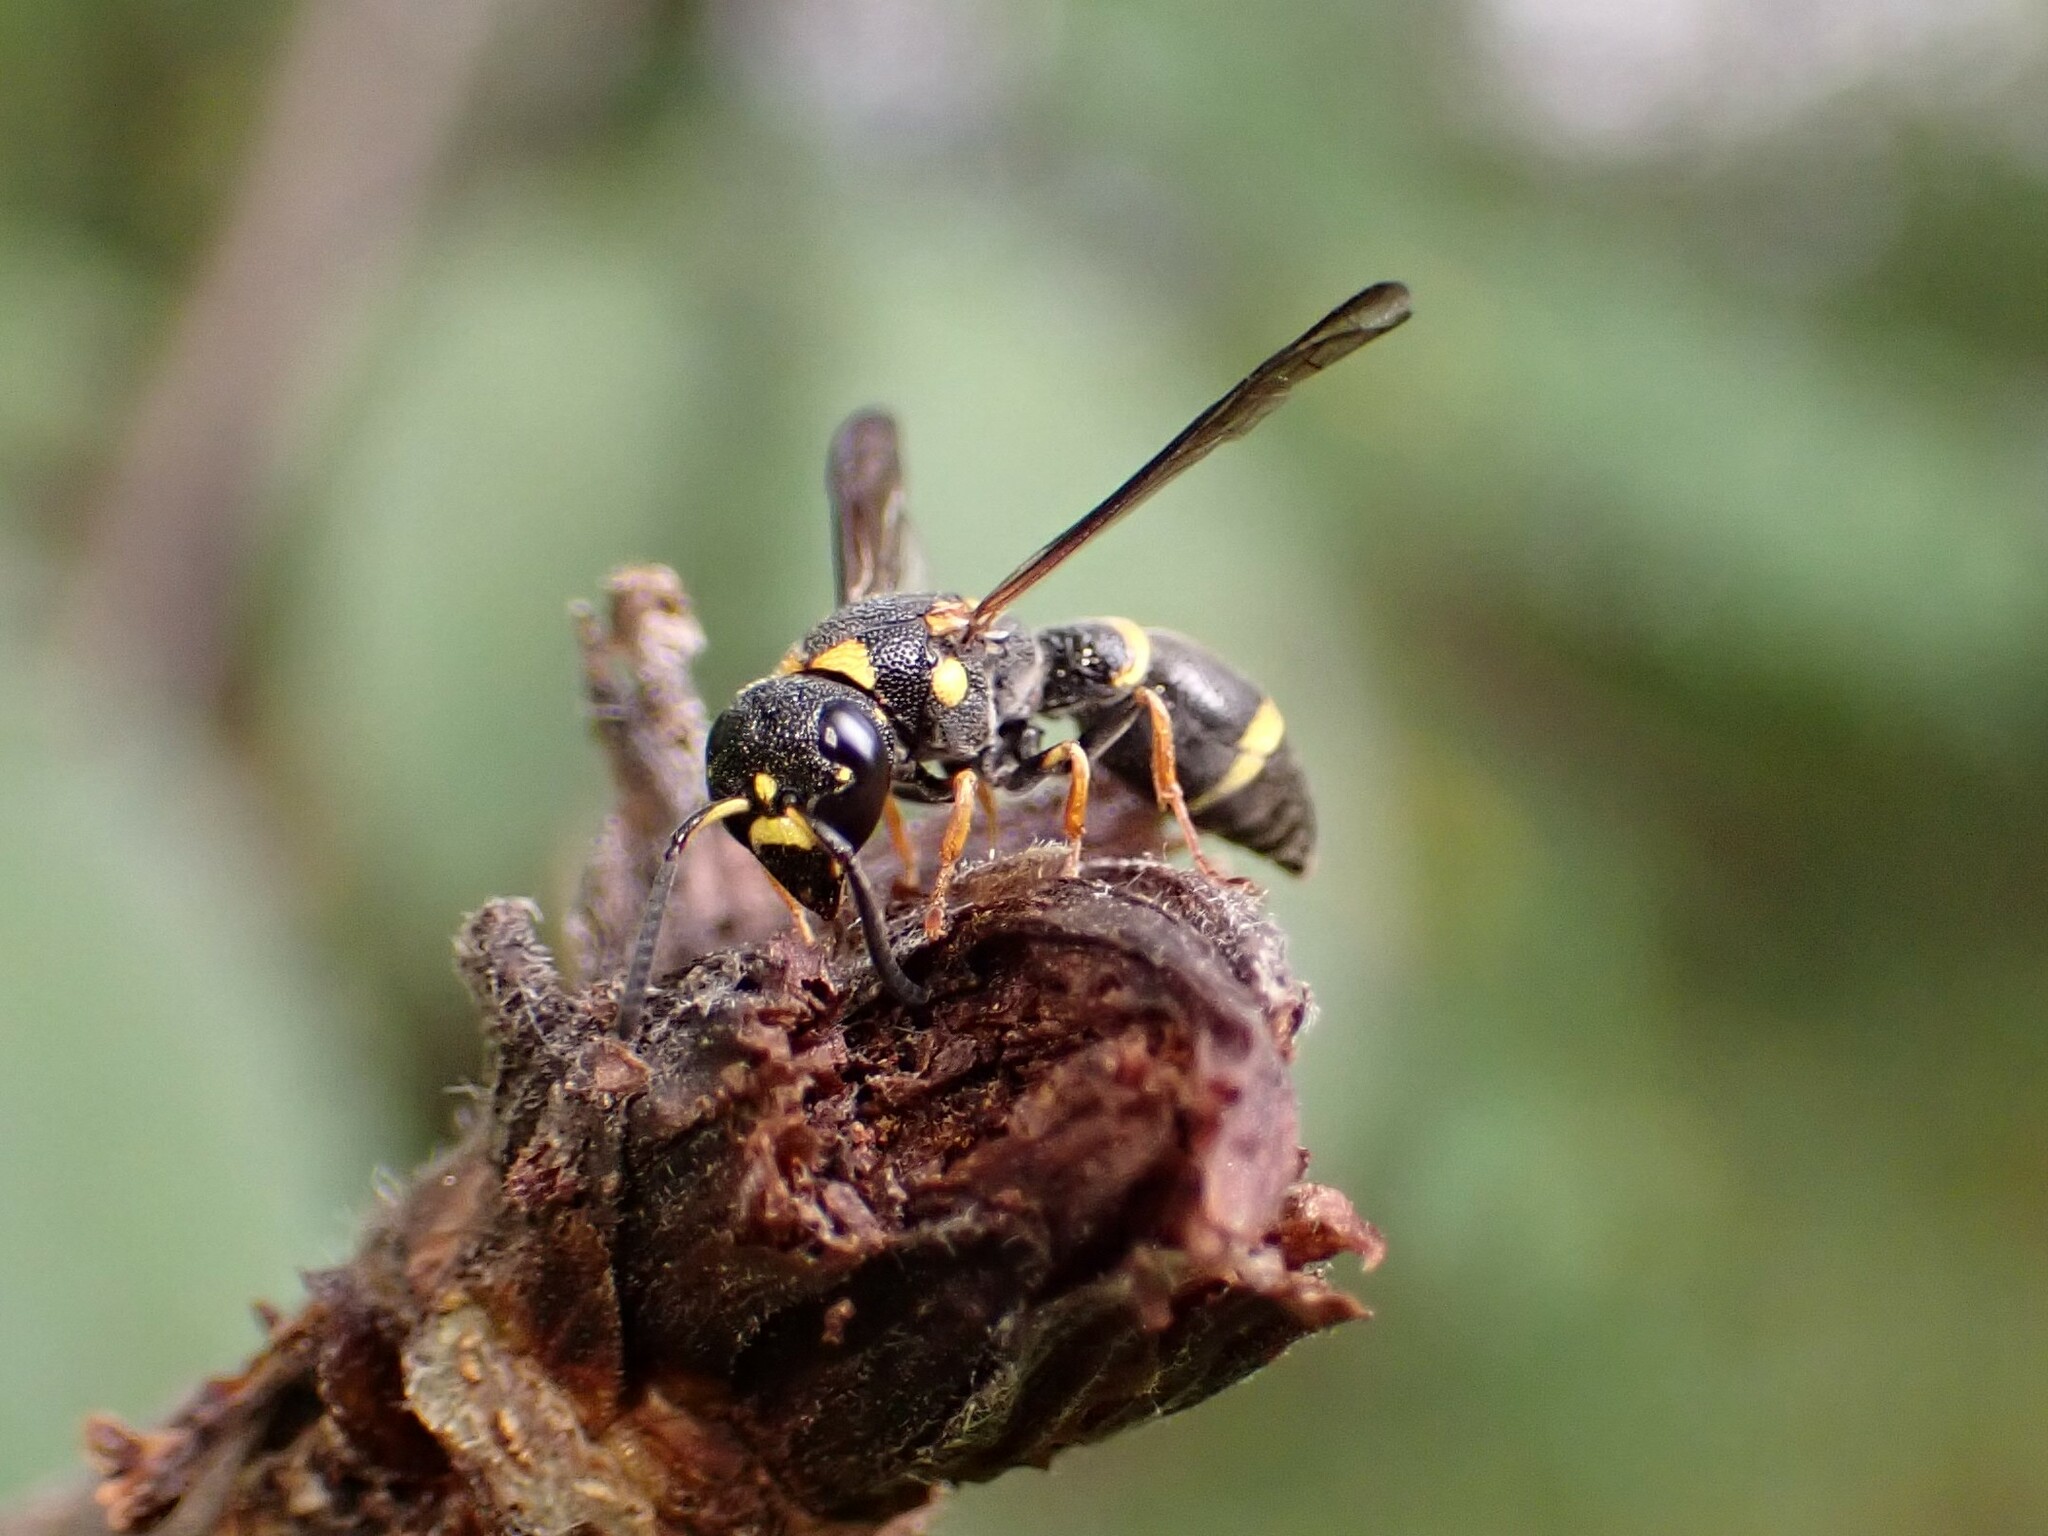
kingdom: Animalia
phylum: Arthropoda
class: Insecta
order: Hymenoptera
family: Eumenidae
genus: Parancistrocerus
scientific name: Parancistrocerus perennis
